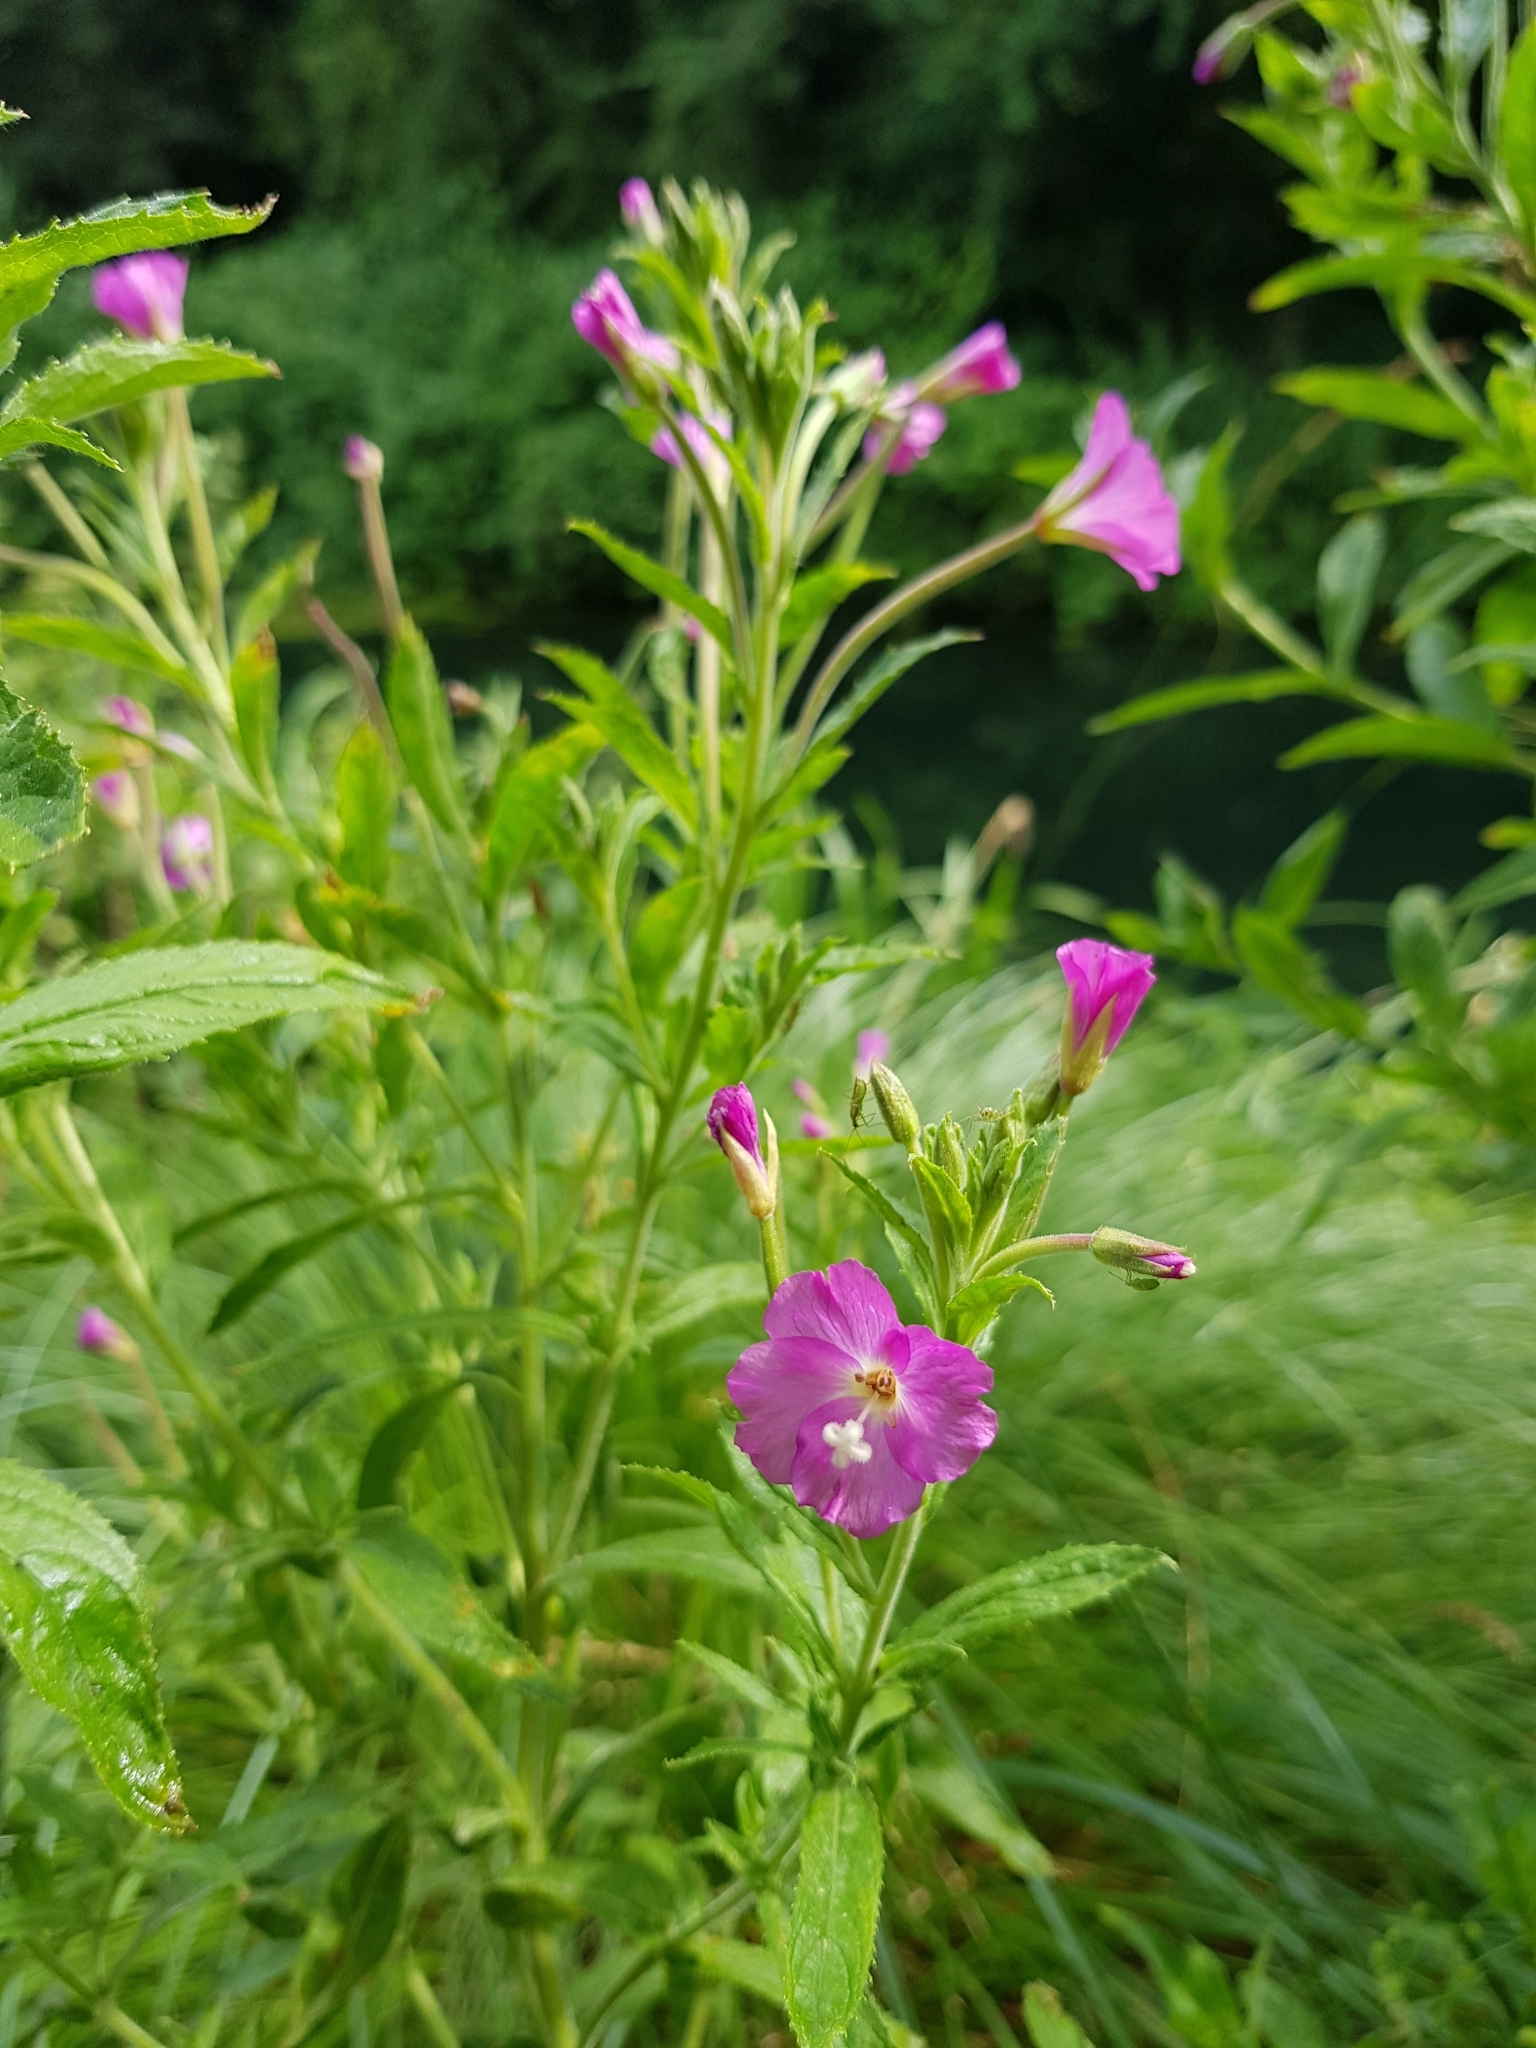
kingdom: Plantae
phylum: Tracheophyta
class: Magnoliopsida
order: Myrtales
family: Onagraceae
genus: Epilobium
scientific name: Epilobium hirsutum
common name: Great willowherb
